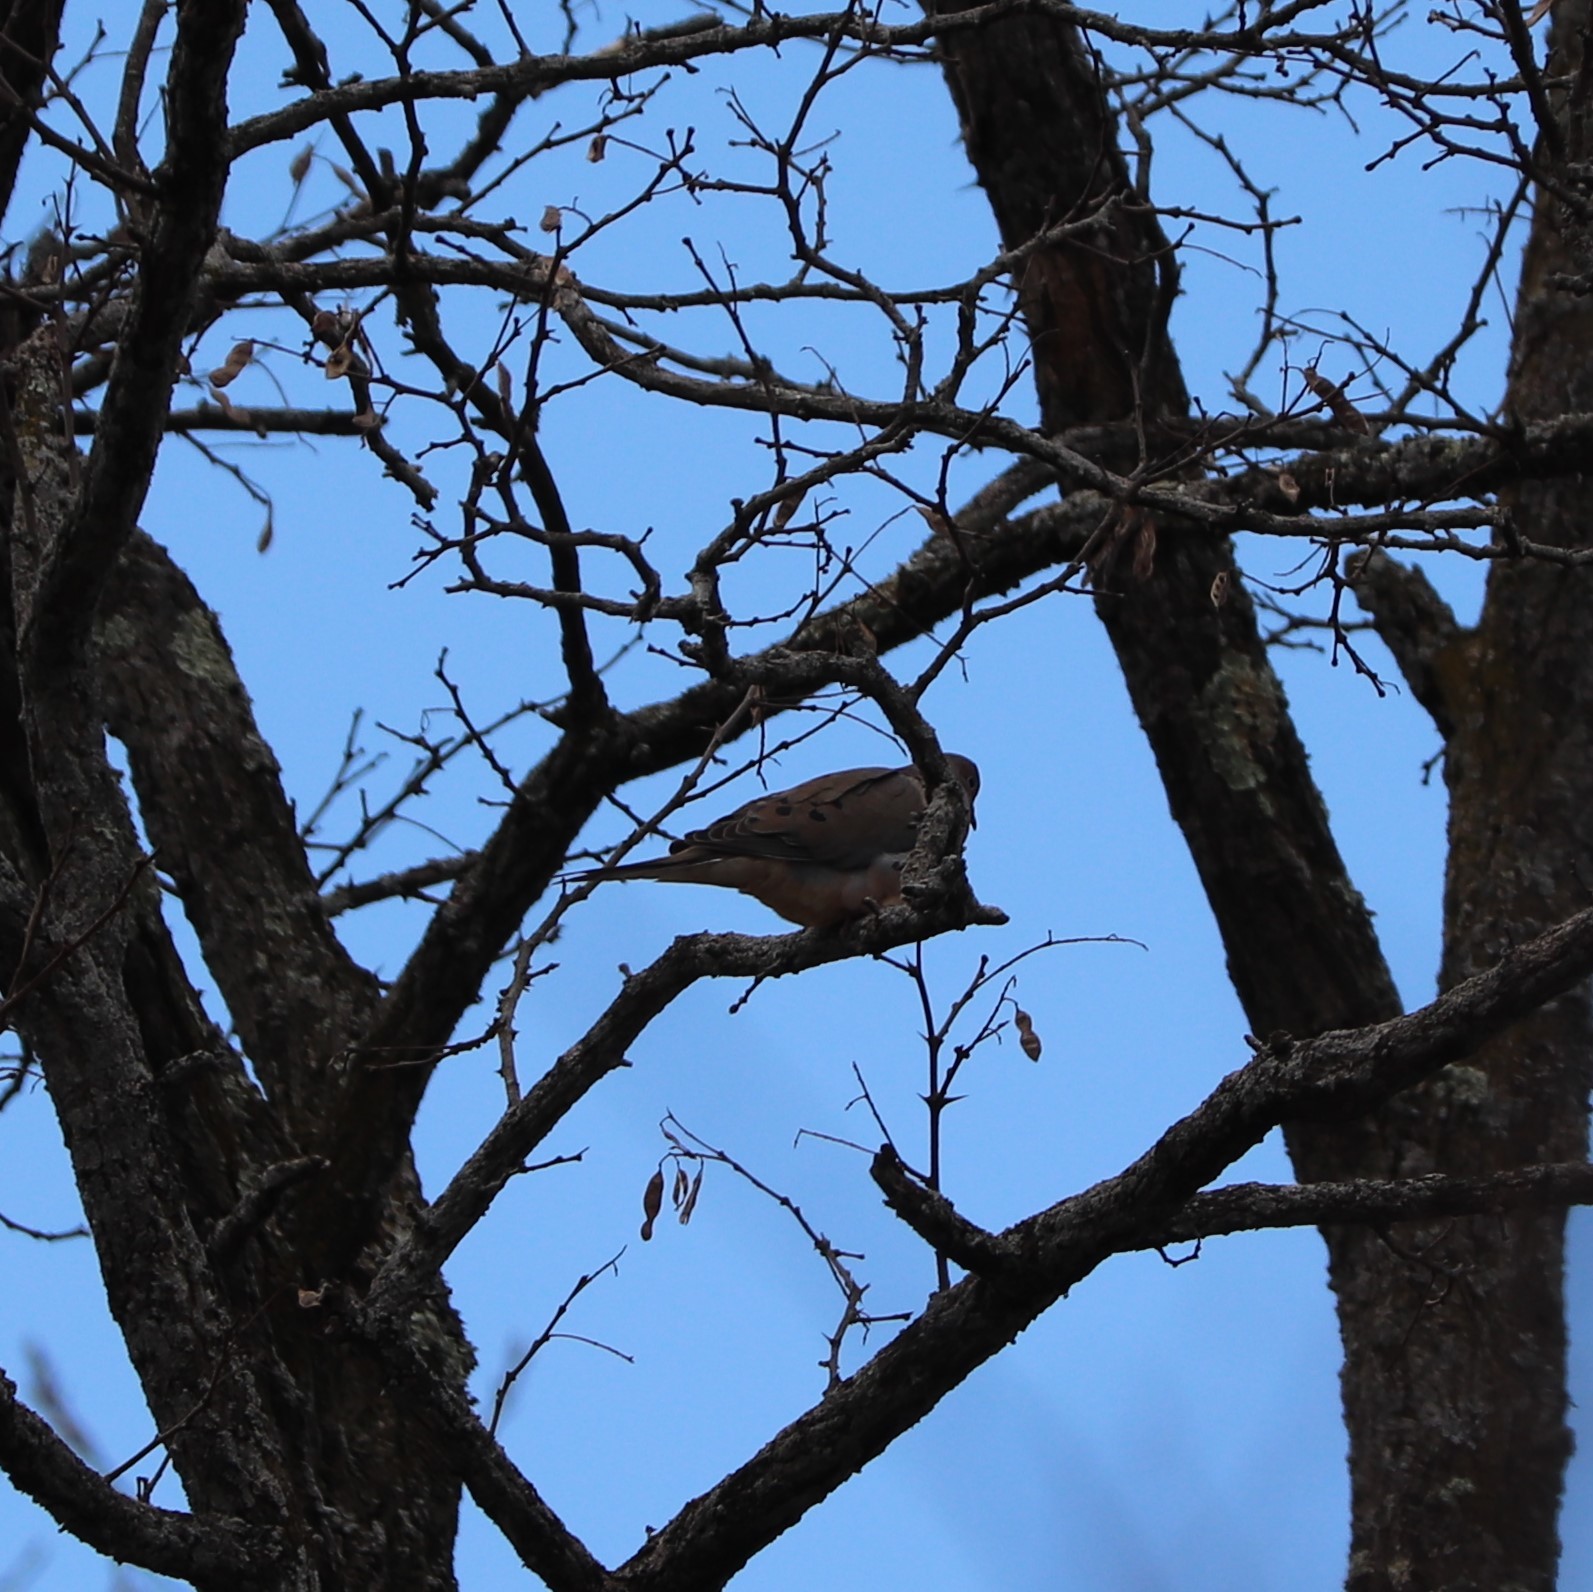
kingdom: Animalia
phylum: Chordata
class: Aves
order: Columbiformes
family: Columbidae
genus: Zenaida
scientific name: Zenaida macroura
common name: Mourning dove
